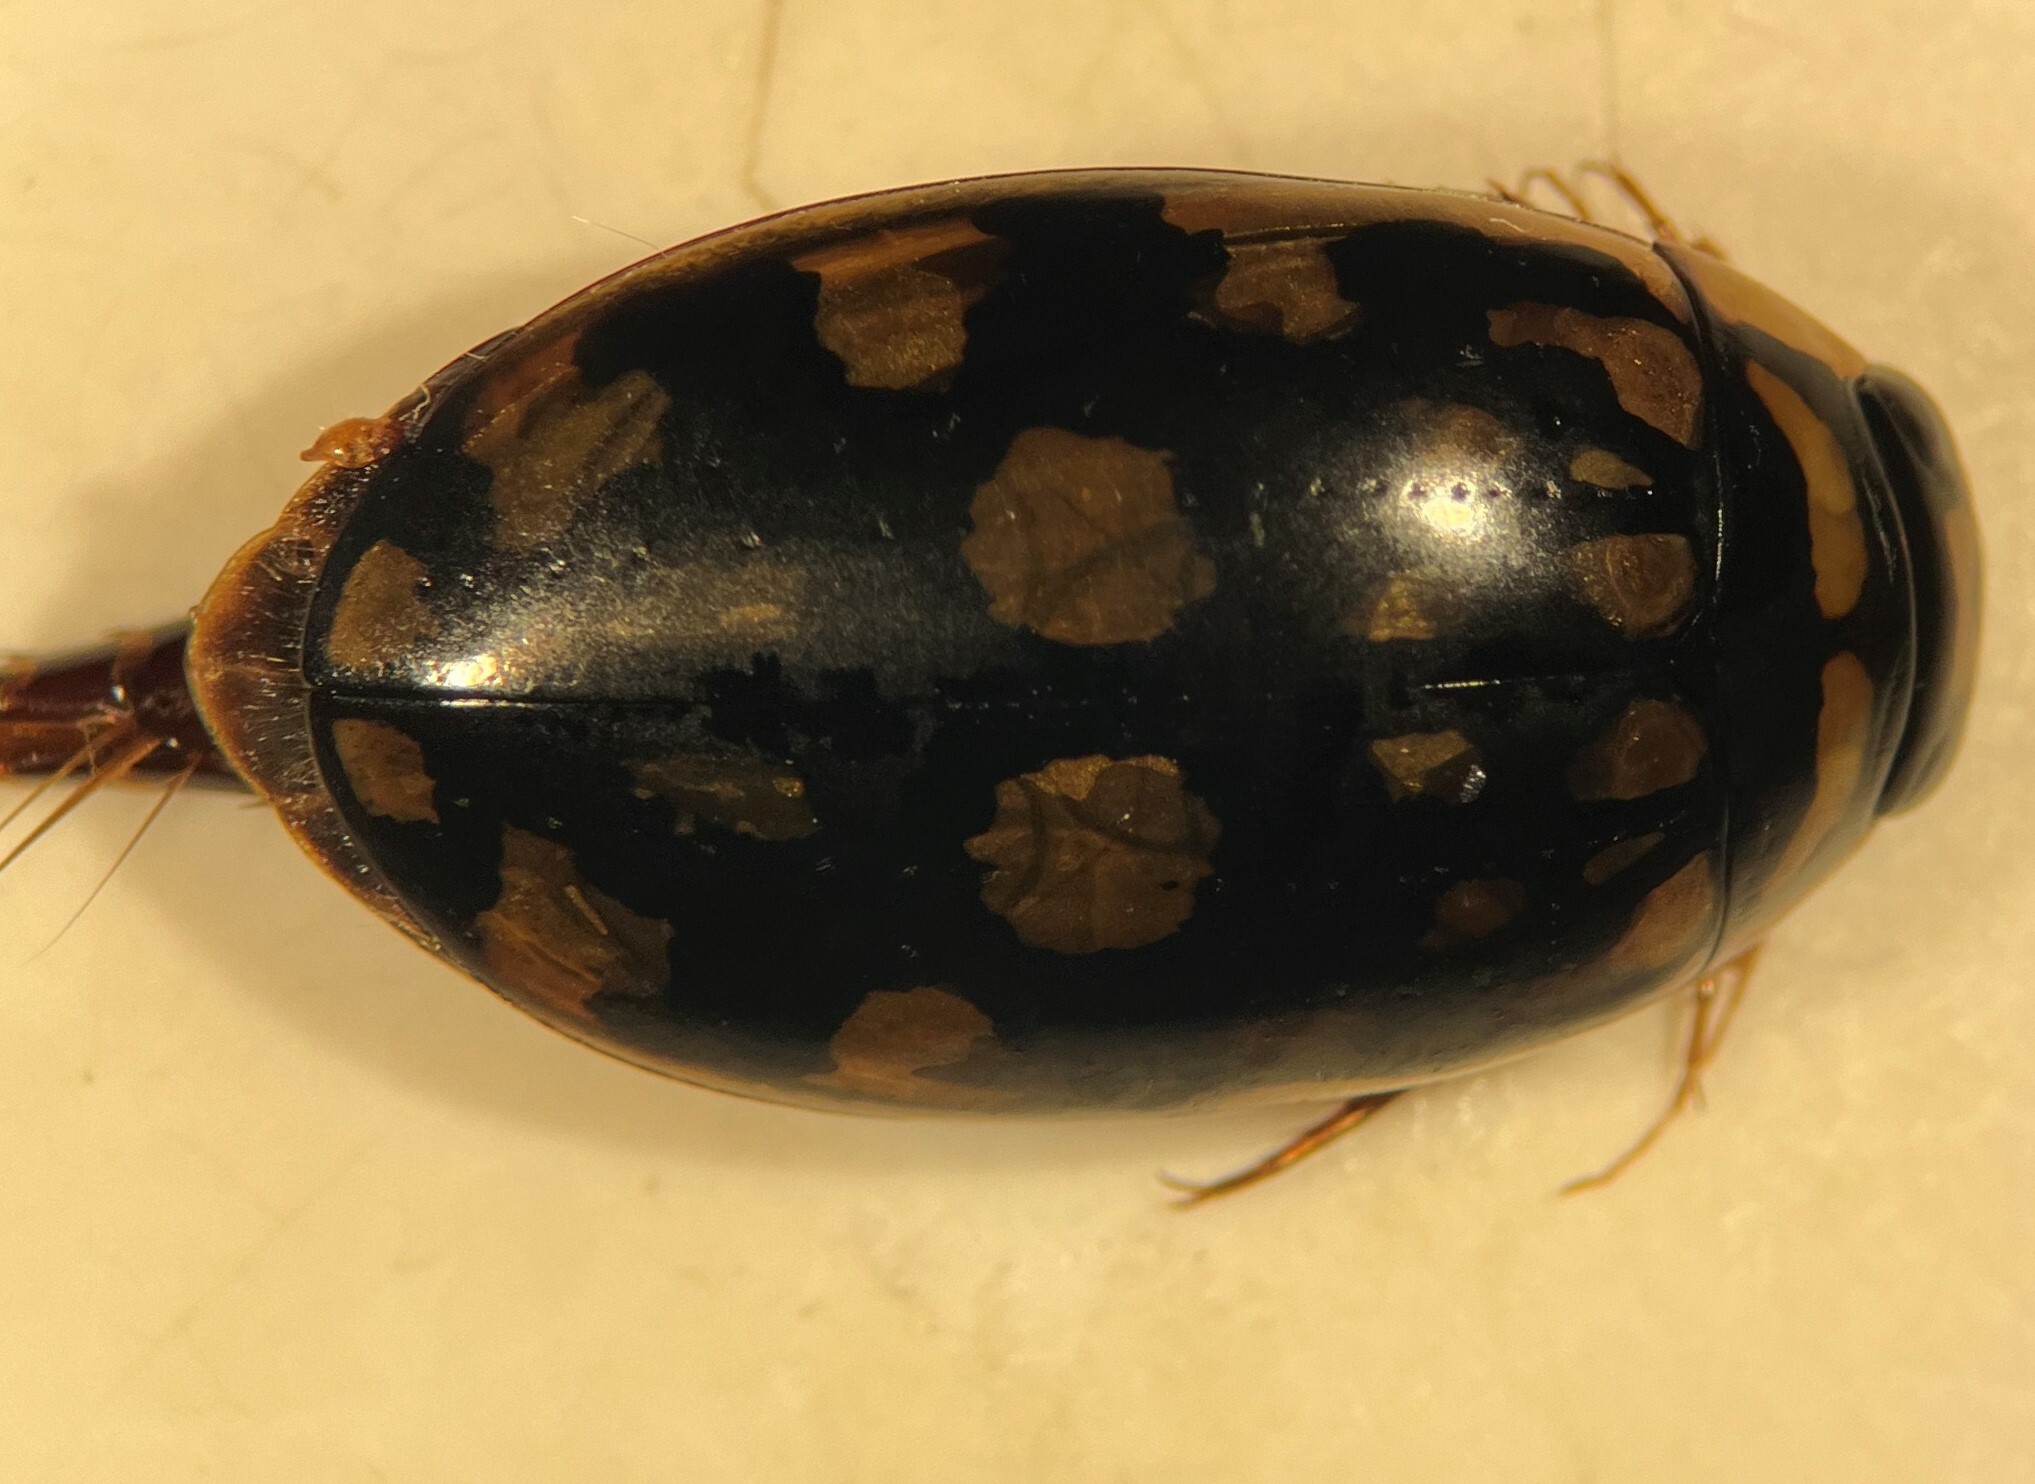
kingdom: Animalia
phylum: Arthropoda
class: Insecta
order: Coleoptera
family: Dytiscidae
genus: Thermonectus
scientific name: Thermonectus marmoratus
